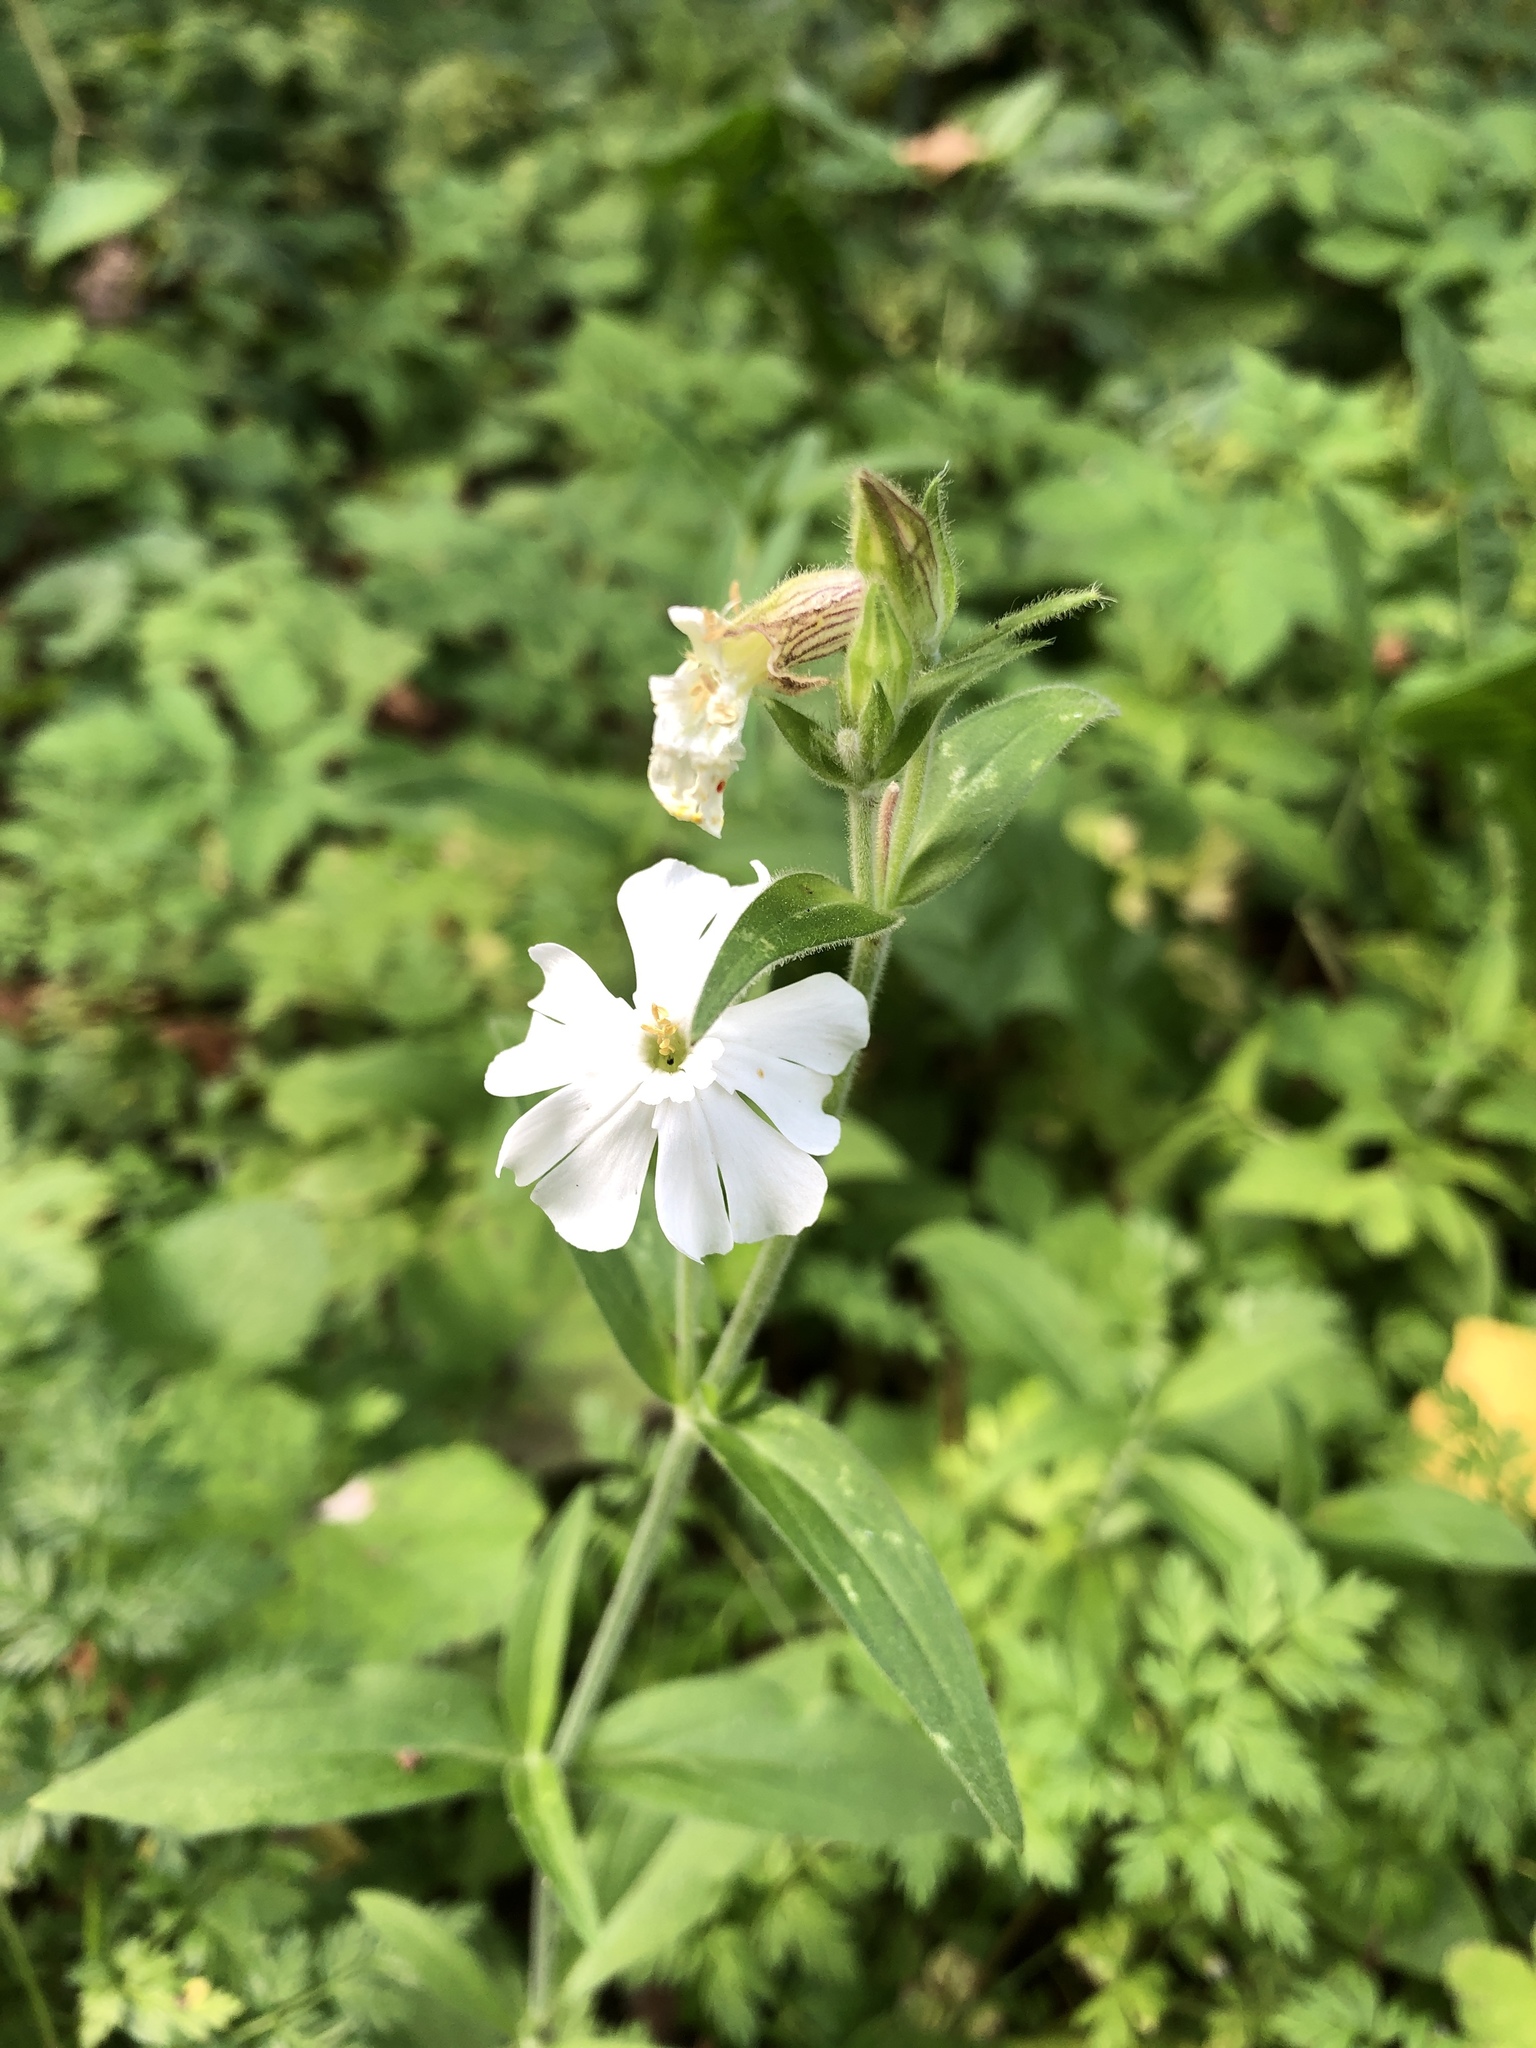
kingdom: Plantae
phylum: Tracheophyta
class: Magnoliopsida
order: Caryophyllales
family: Caryophyllaceae
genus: Silene
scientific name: Silene latifolia
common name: White campion
